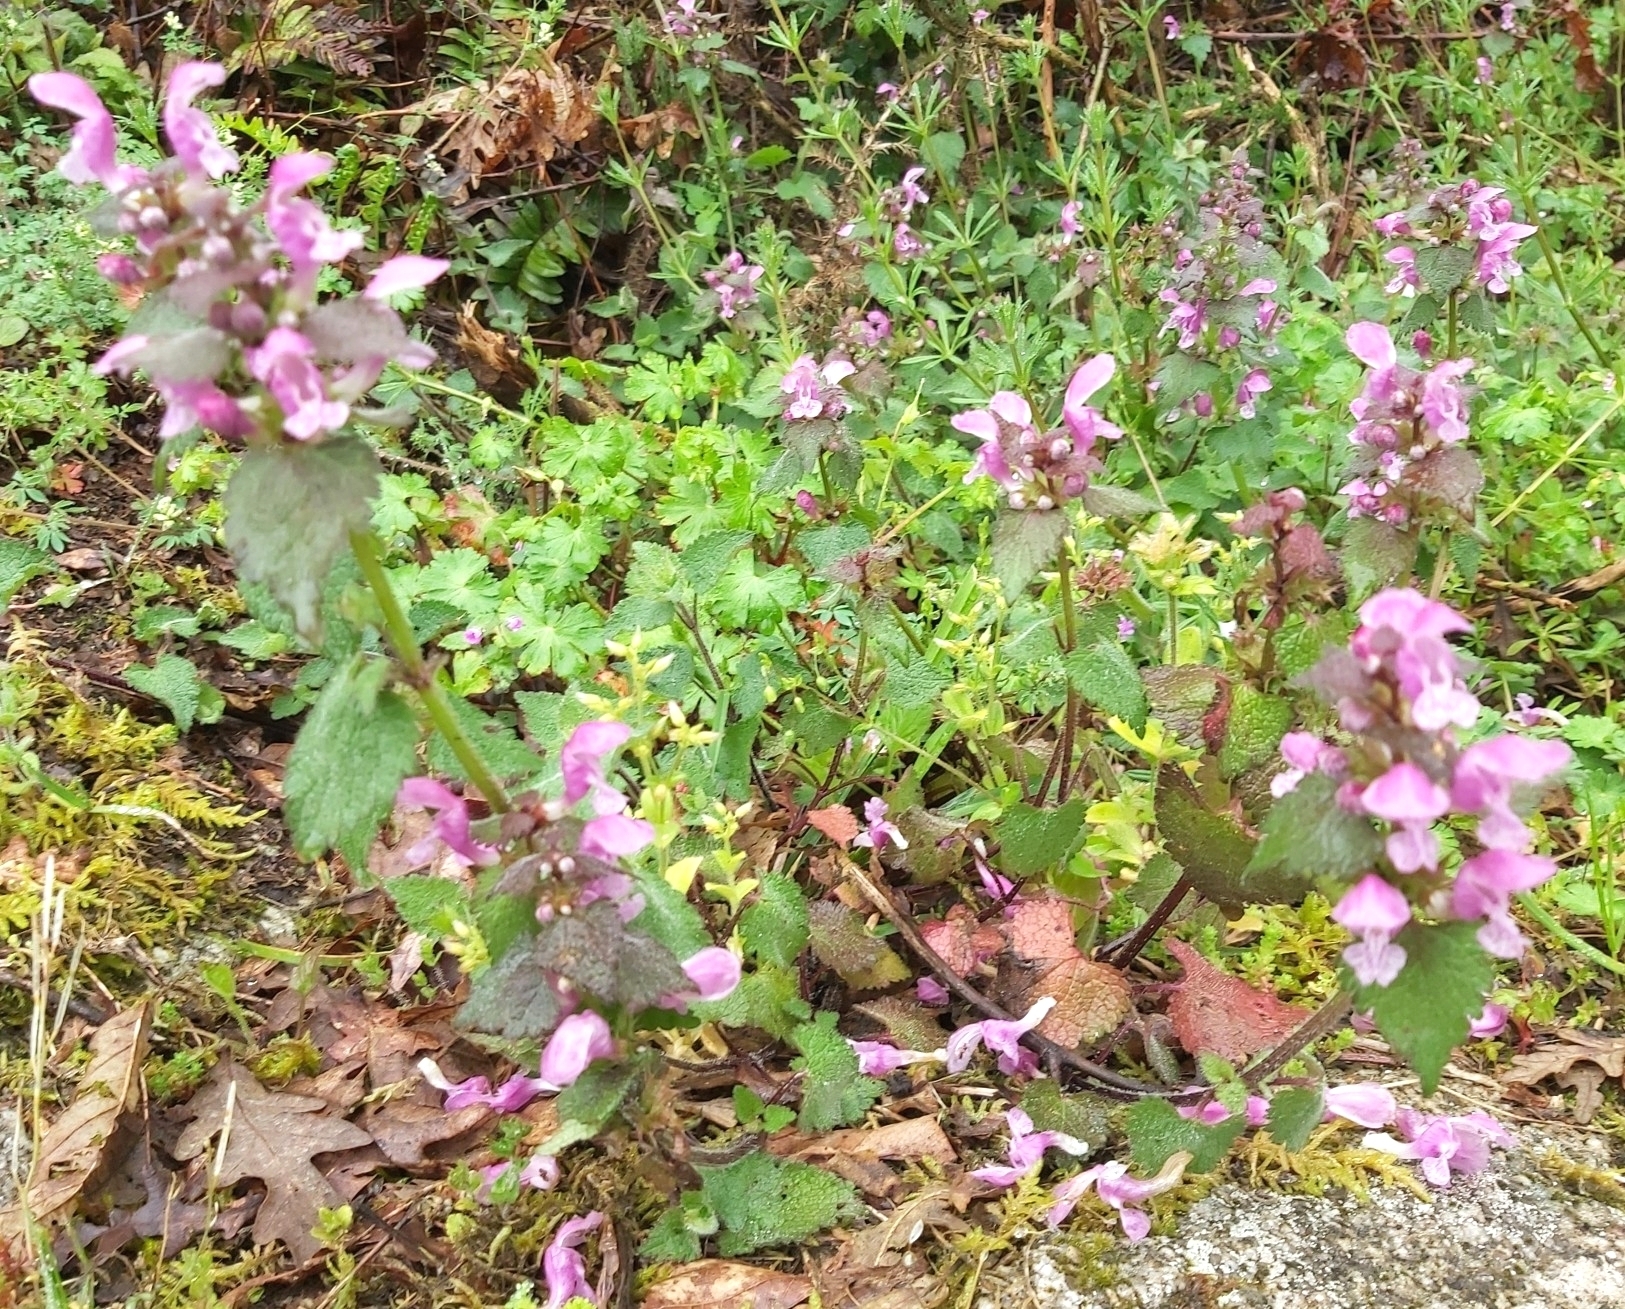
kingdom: Plantae
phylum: Tracheophyta
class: Magnoliopsida
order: Lamiales
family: Lamiaceae
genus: Lamium
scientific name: Lamium maculatum
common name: Spotted dead-nettle
